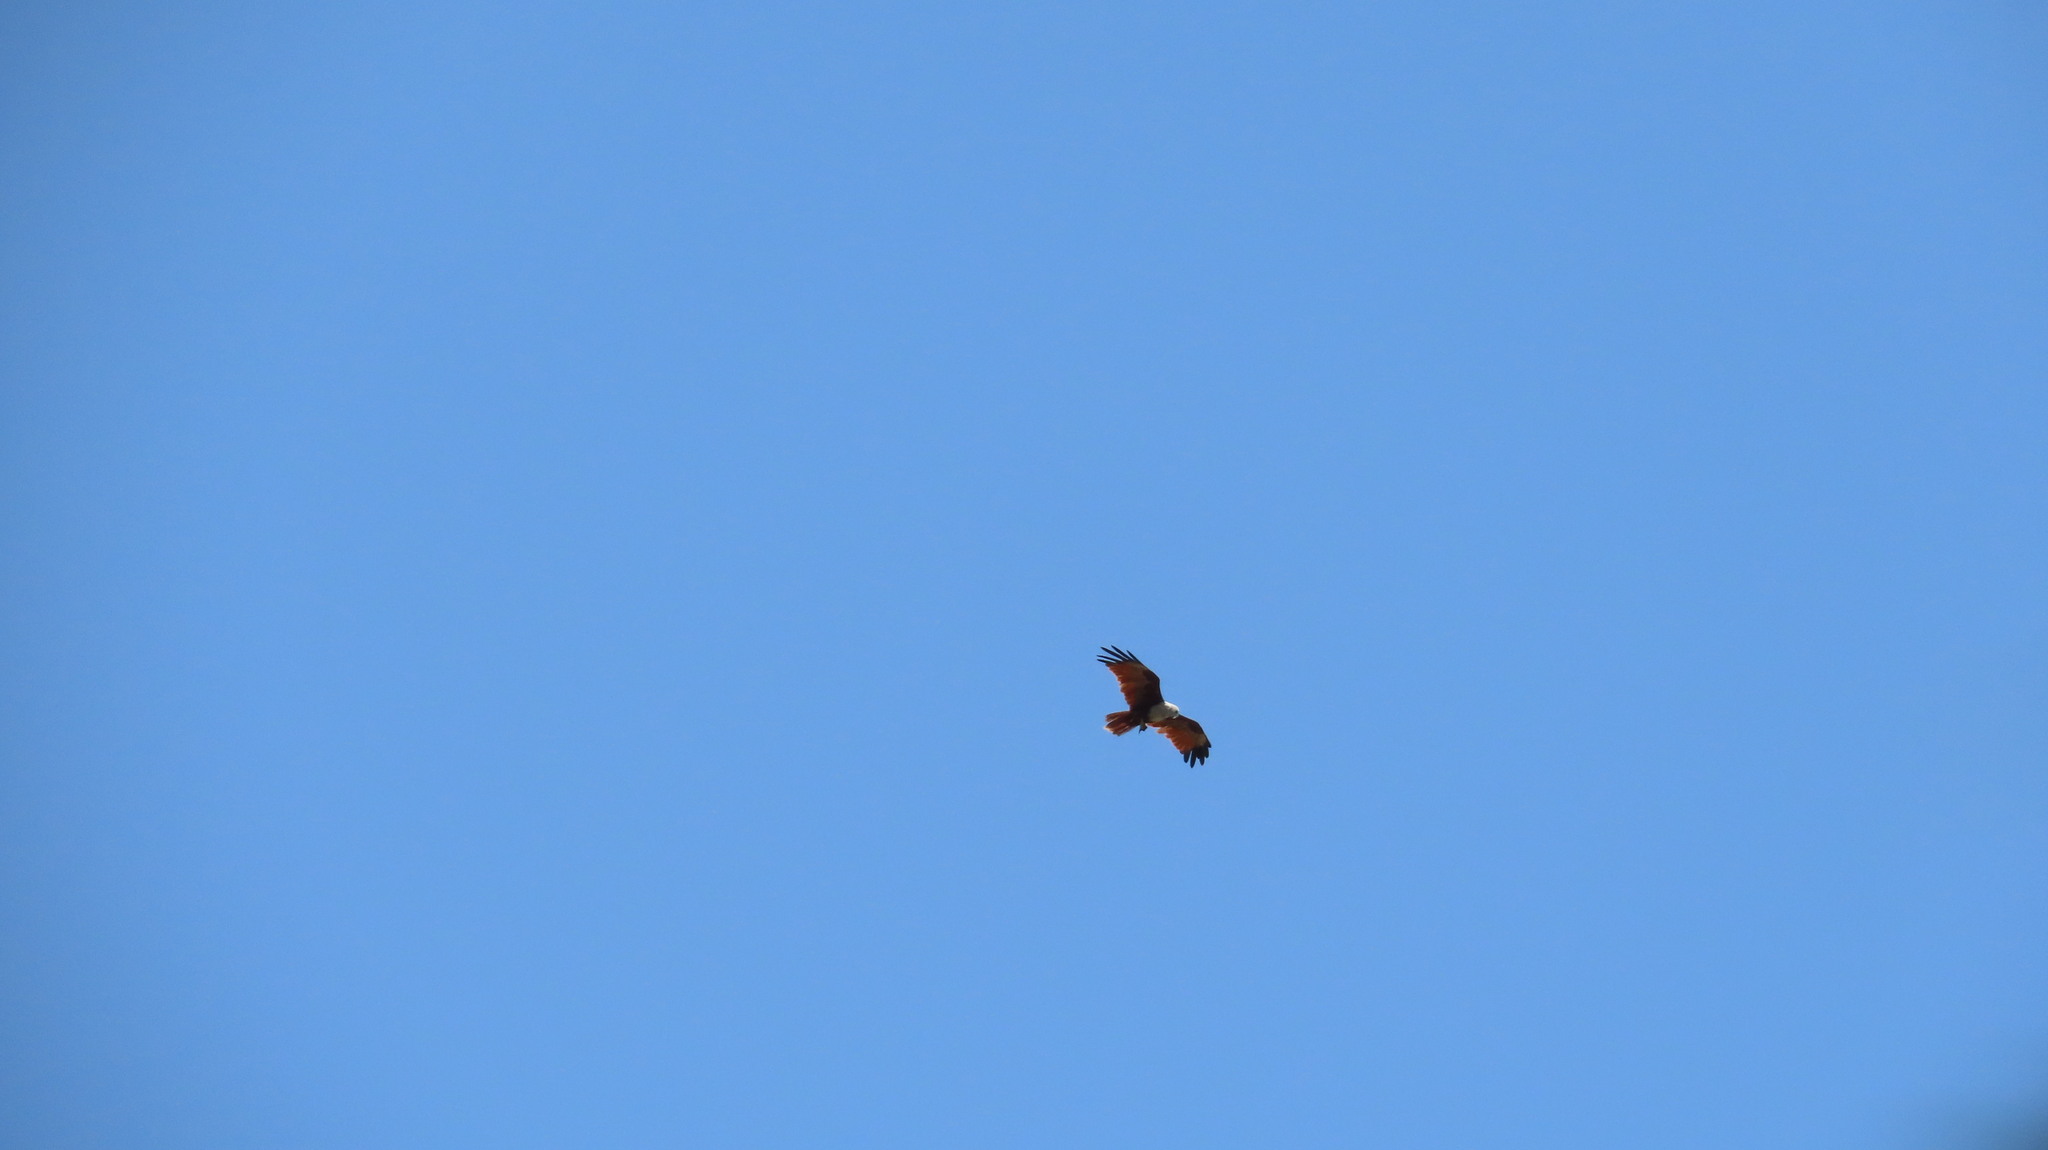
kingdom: Animalia
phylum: Chordata
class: Aves
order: Accipitriformes
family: Accipitridae
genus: Haliastur
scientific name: Haliastur indus
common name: Brahminy kite
